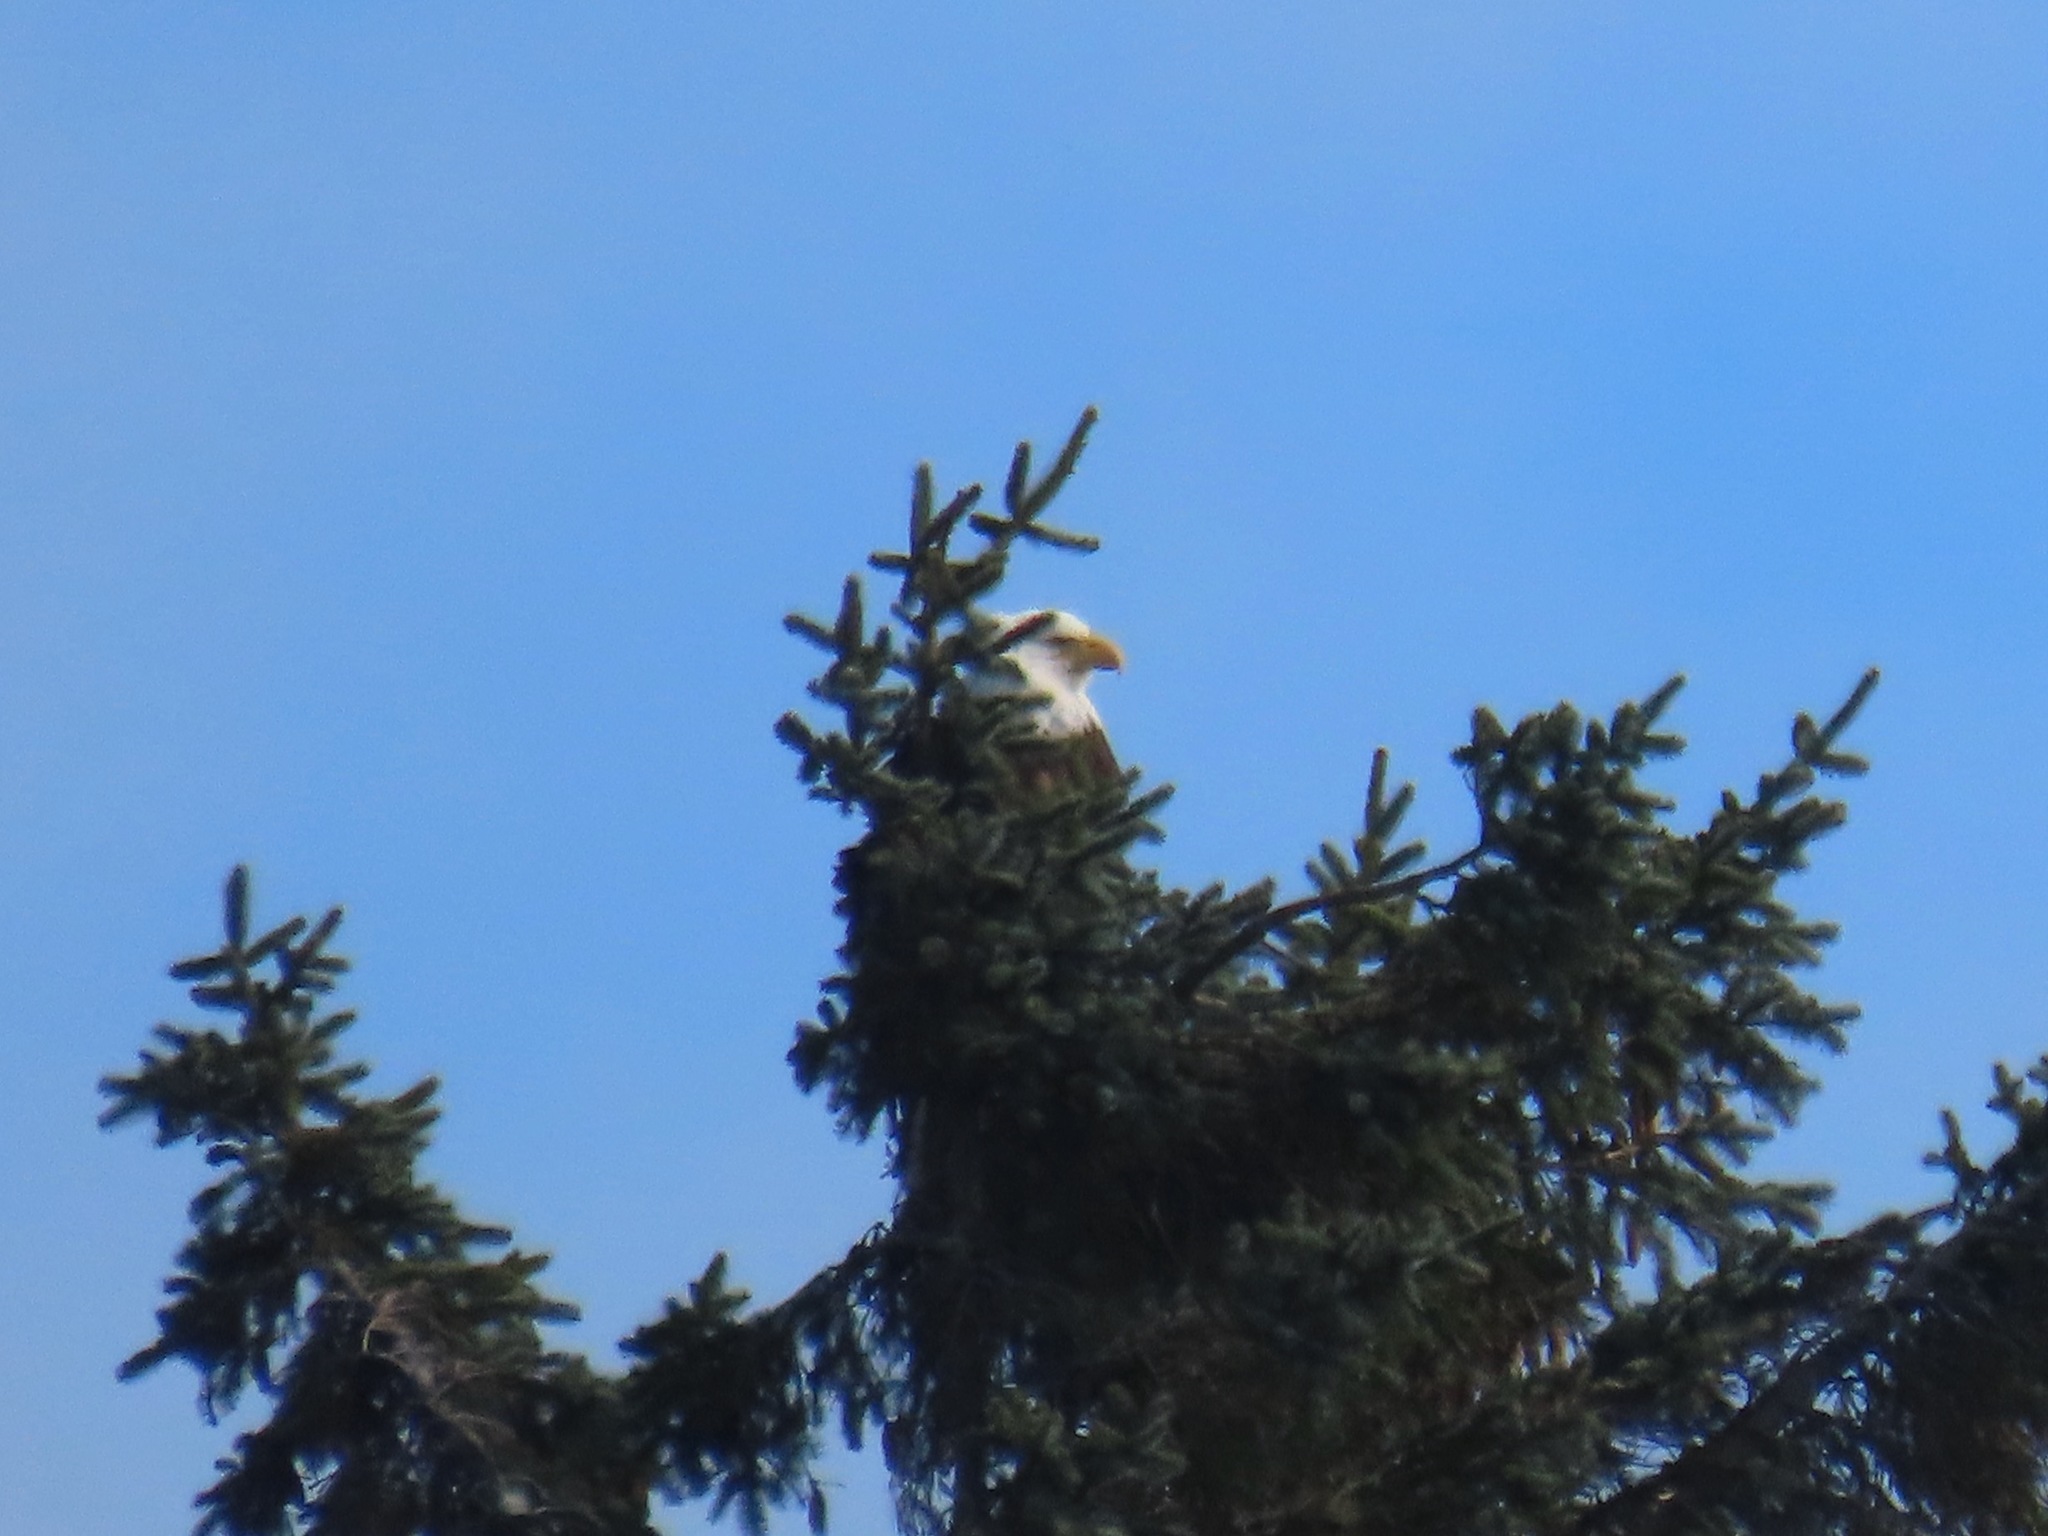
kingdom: Animalia
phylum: Chordata
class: Aves
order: Accipitriformes
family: Accipitridae
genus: Haliaeetus
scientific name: Haliaeetus leucocephalus
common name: Bald eagle
